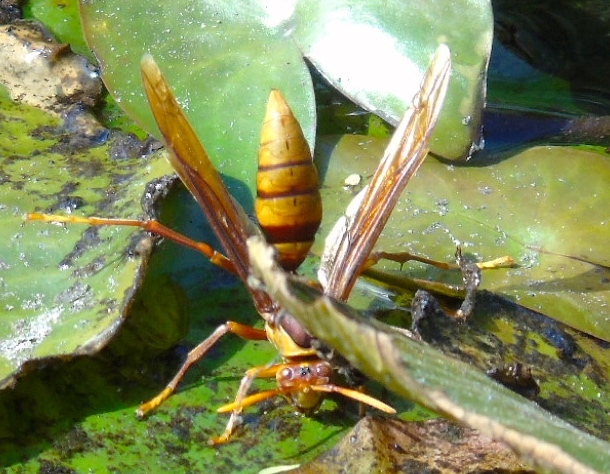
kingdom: Animalia
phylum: Arthropoda
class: Insecta
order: Hymenoptera
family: Eumenidae
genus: Polistes
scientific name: Polistes carnifex
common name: Paper wasp
